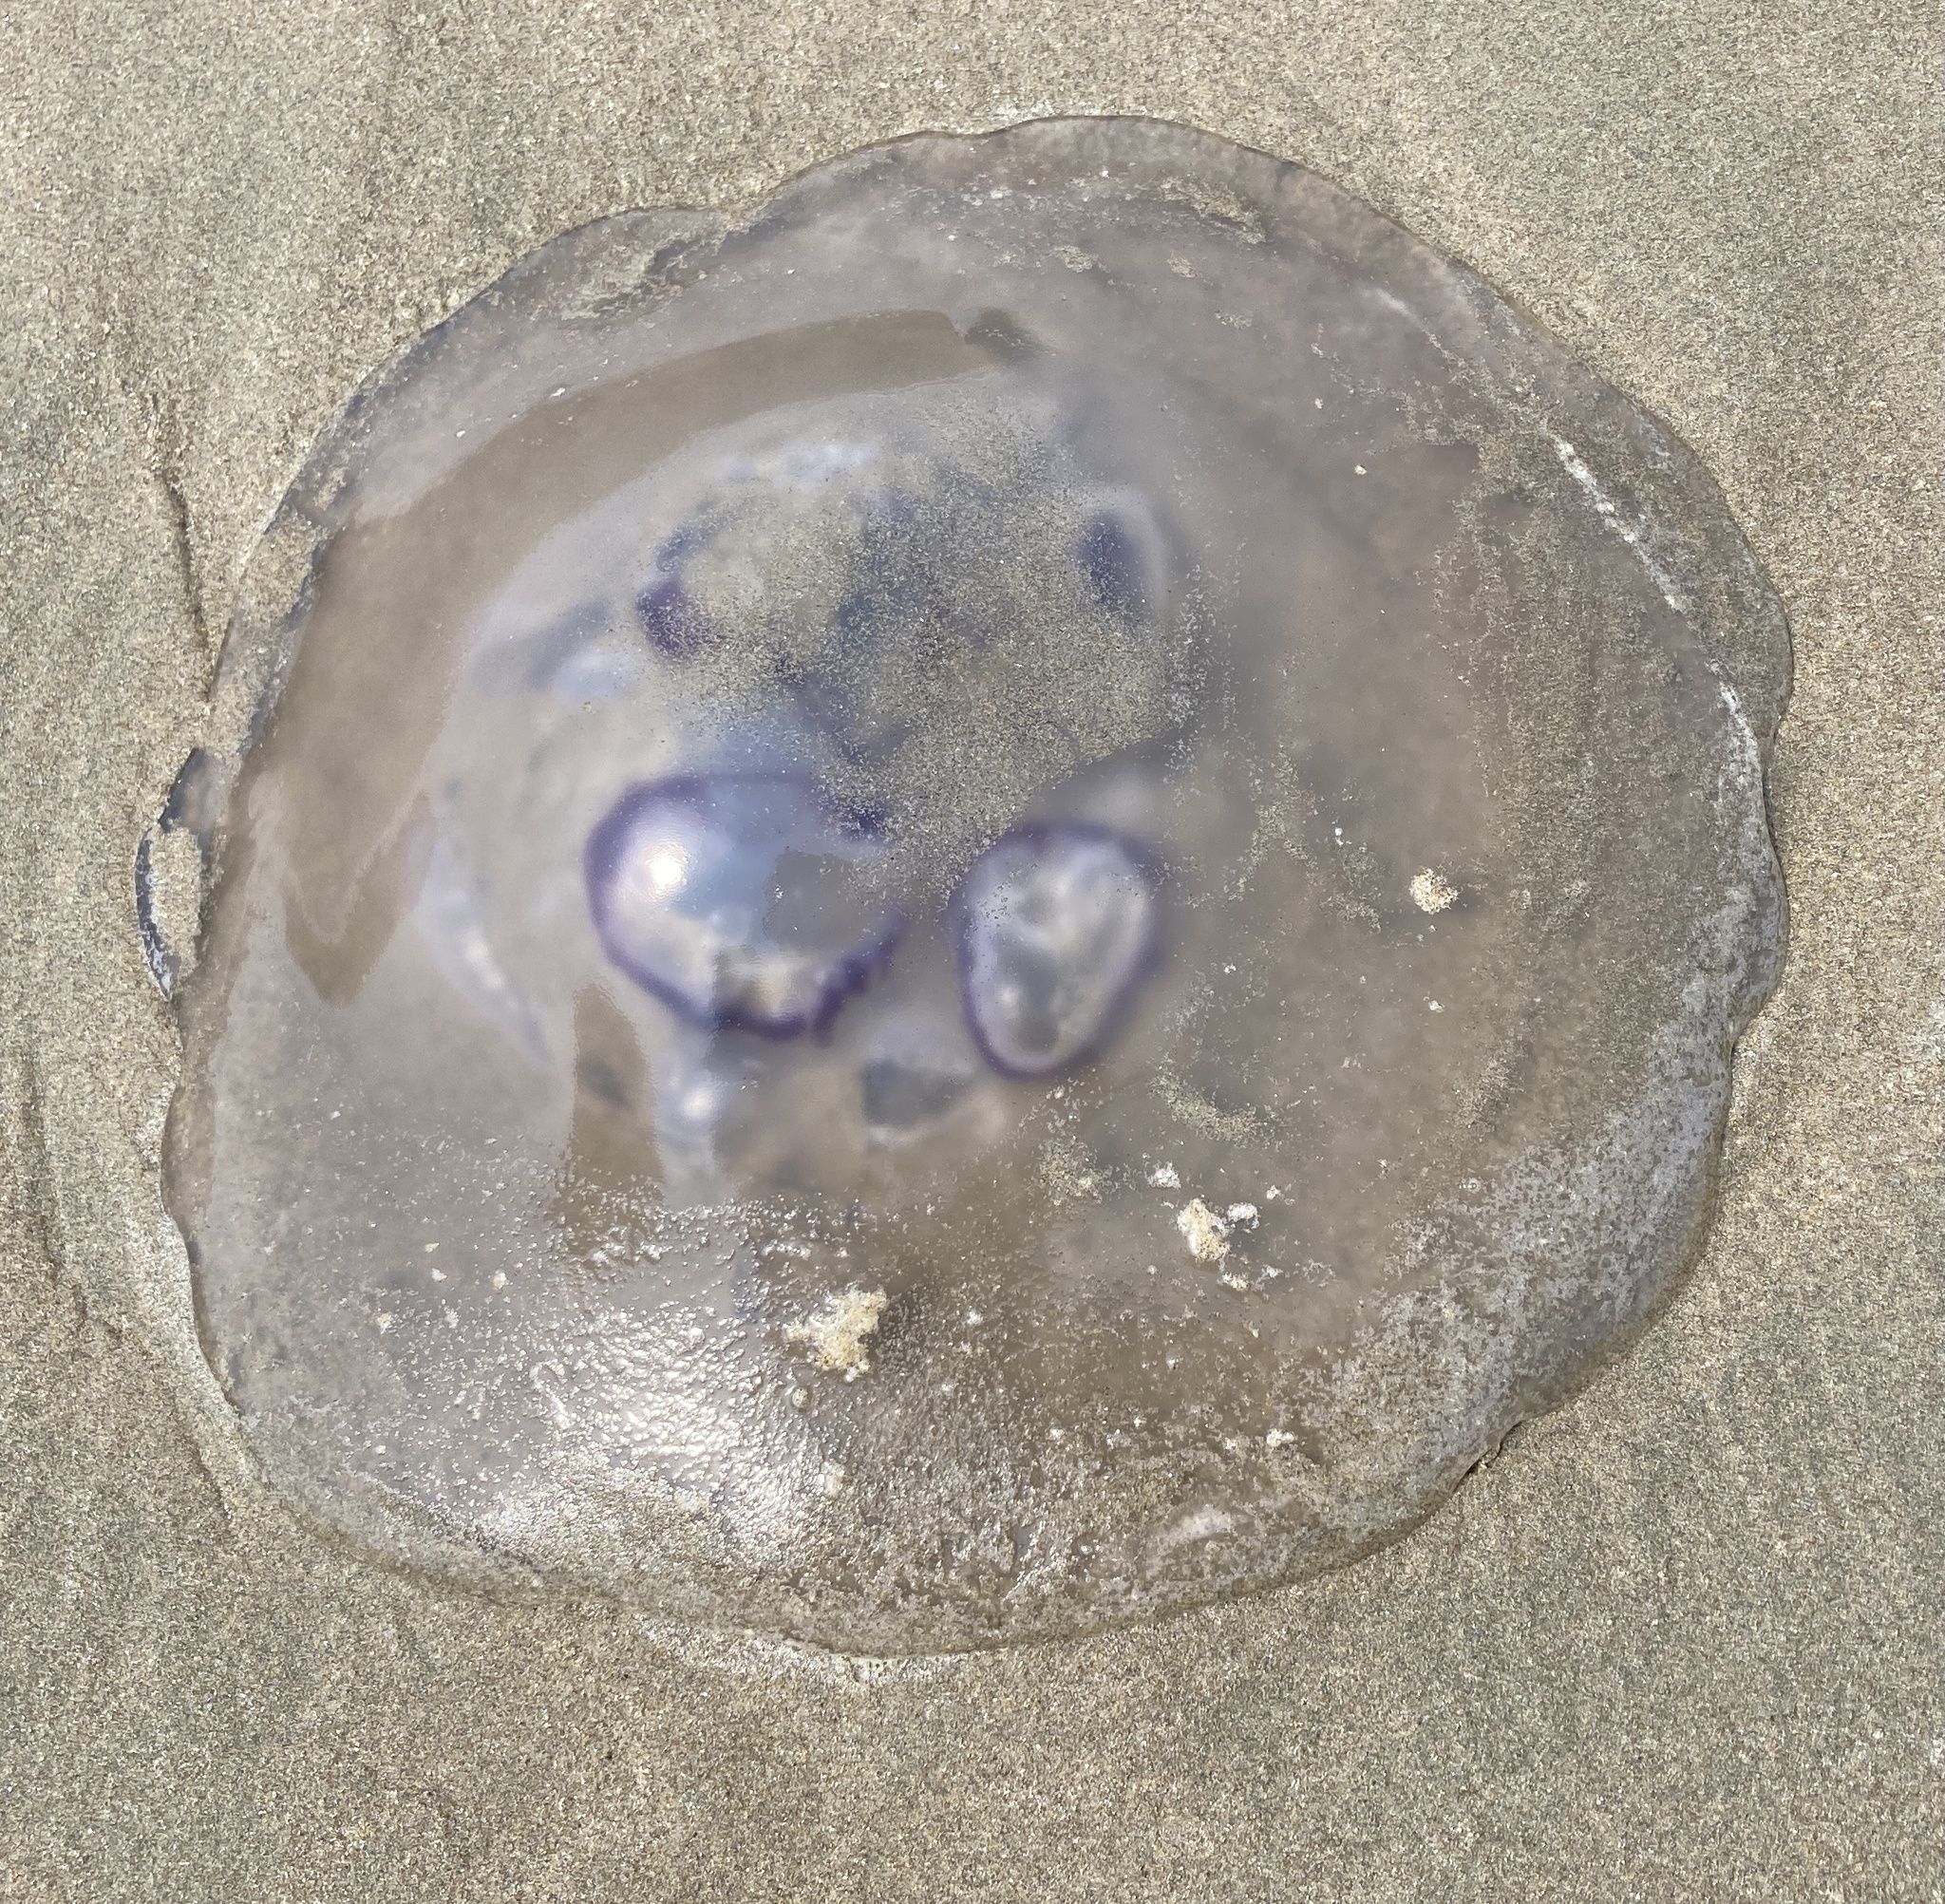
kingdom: Animalia
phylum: Cnidaria
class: Scyphozoa
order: Semaeostomeae
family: Ulmaridae
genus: Aurelia
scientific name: Aurelia labiata
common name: Pacific moon jelly
